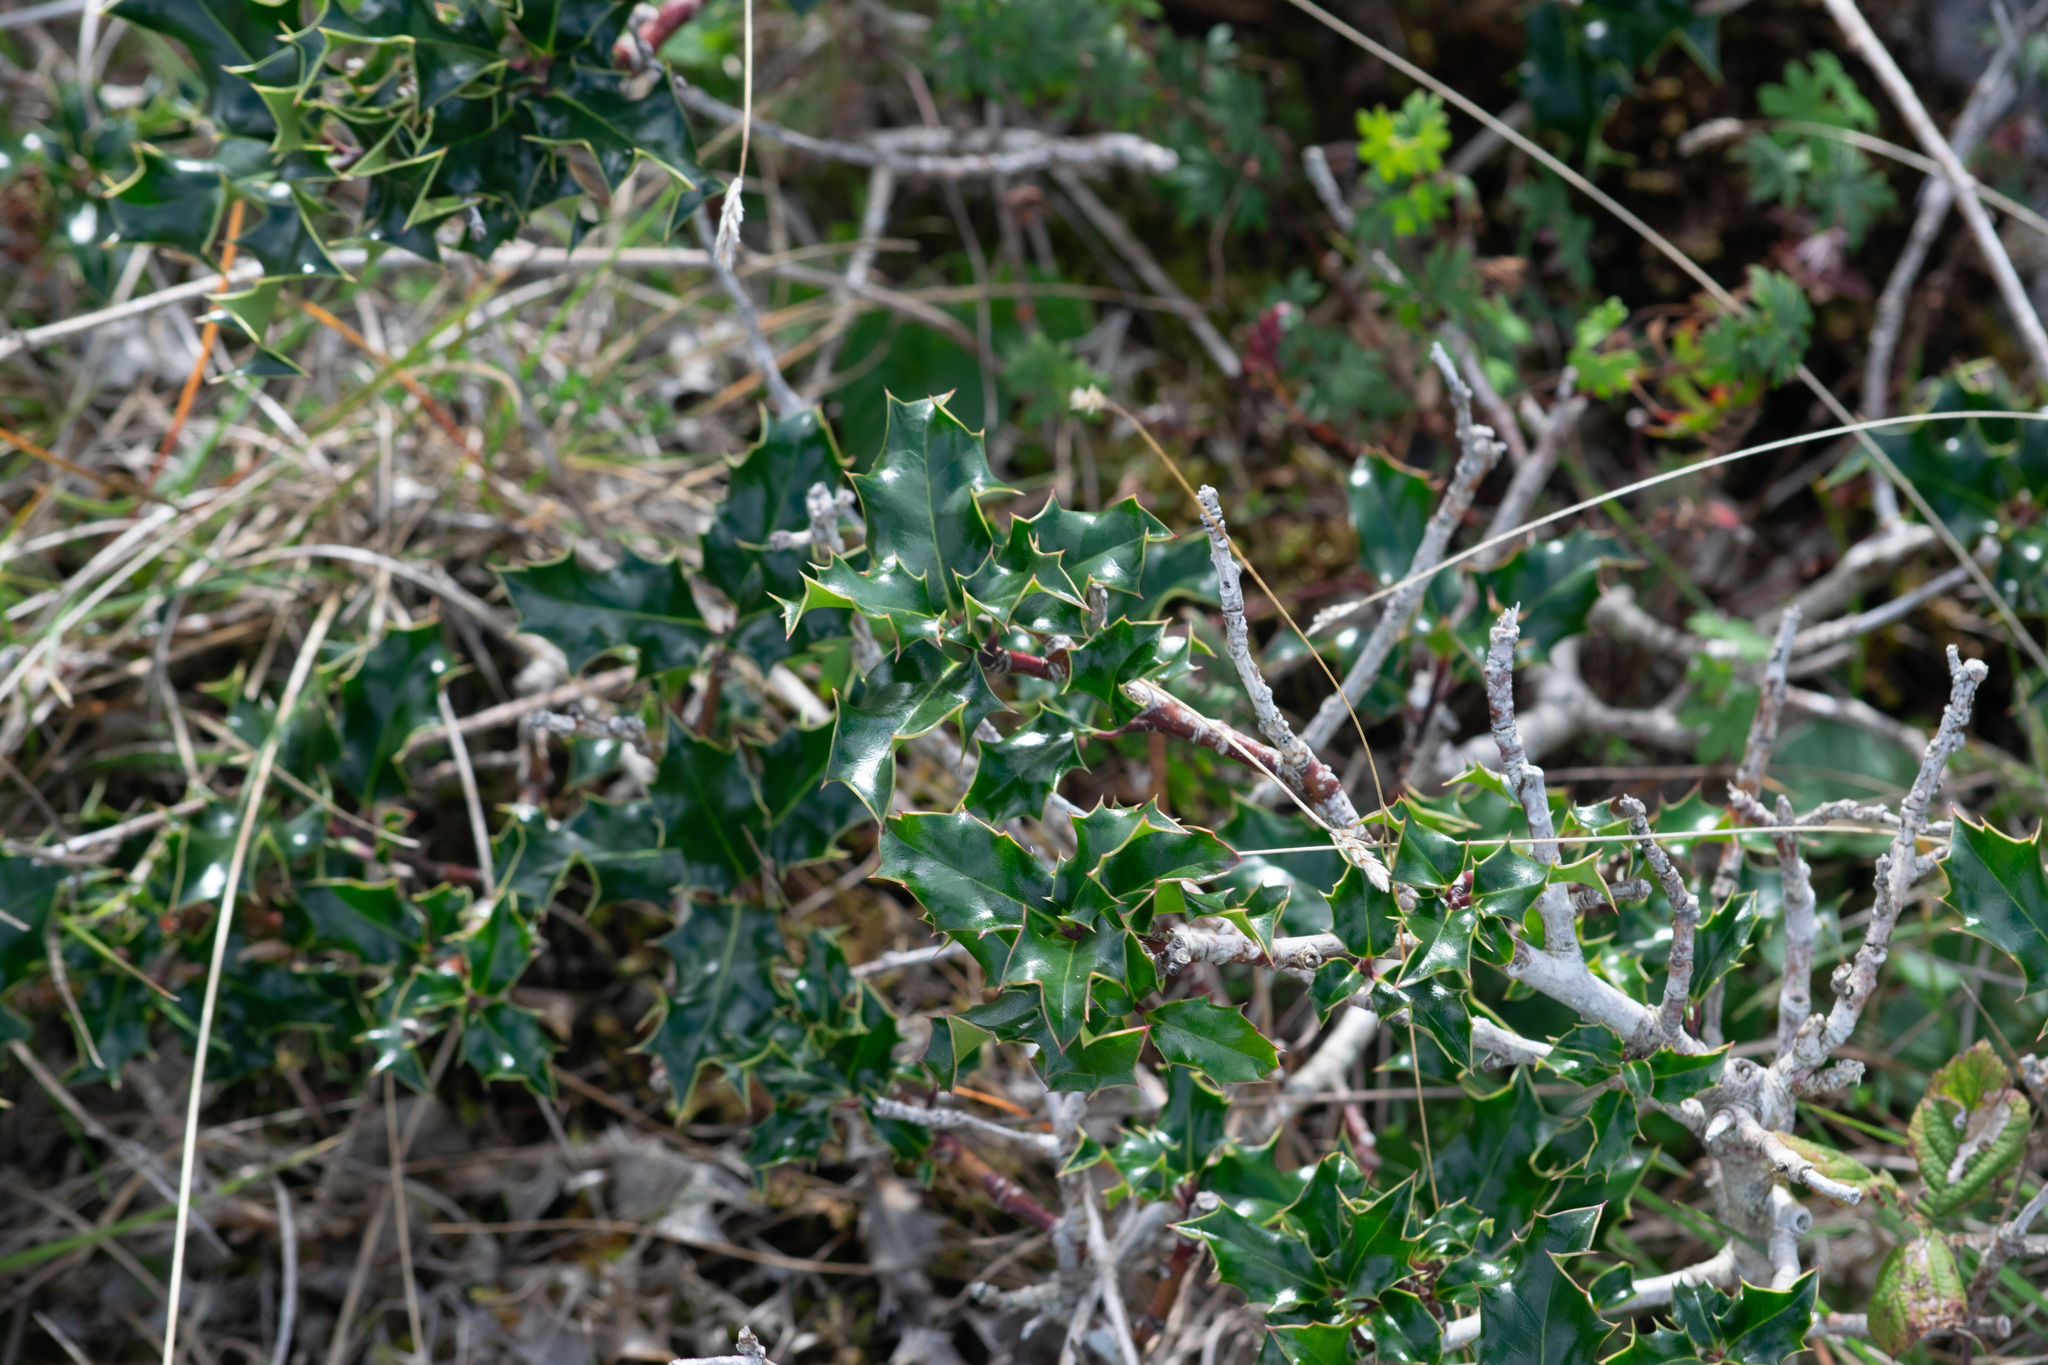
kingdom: Plantae
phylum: Tracheophyta
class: Magnoliopsida
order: Aquifoliales
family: Aquifoliaceae
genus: Ilex
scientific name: Ilex aquifolium
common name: English holly
